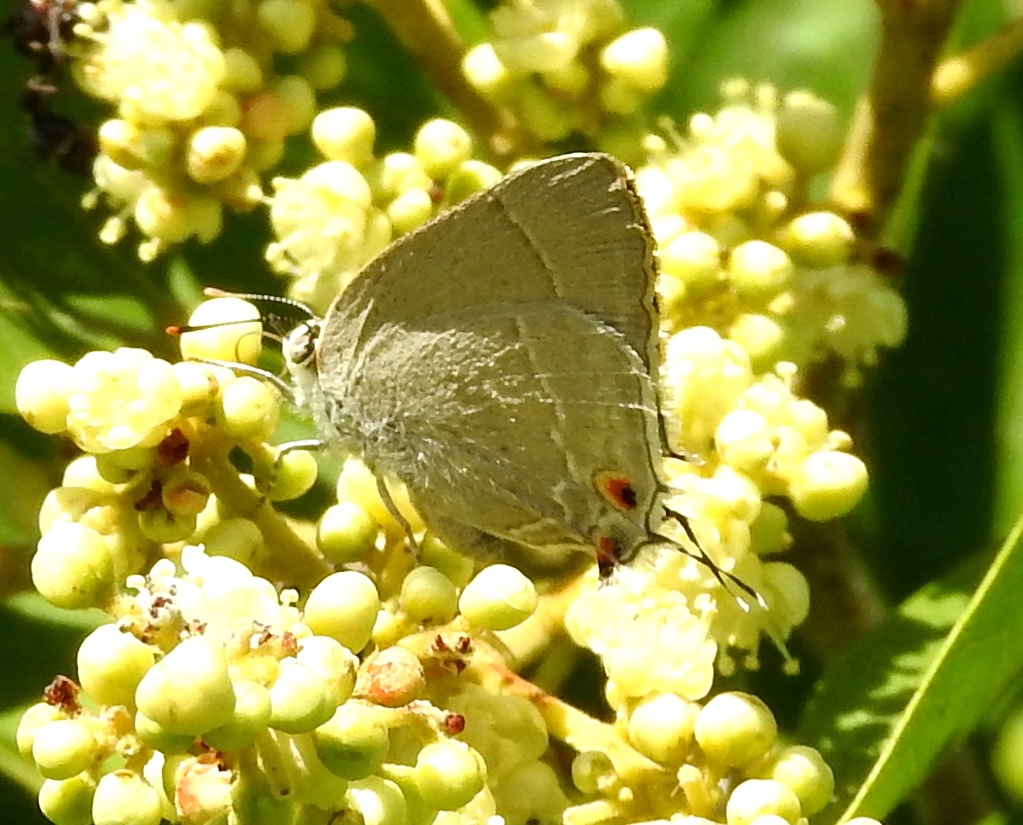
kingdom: Animalia
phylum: Arthropoda
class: Insecta
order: Lepidoptera
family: Lycaenidae
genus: Thecla
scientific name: Thecla marius
